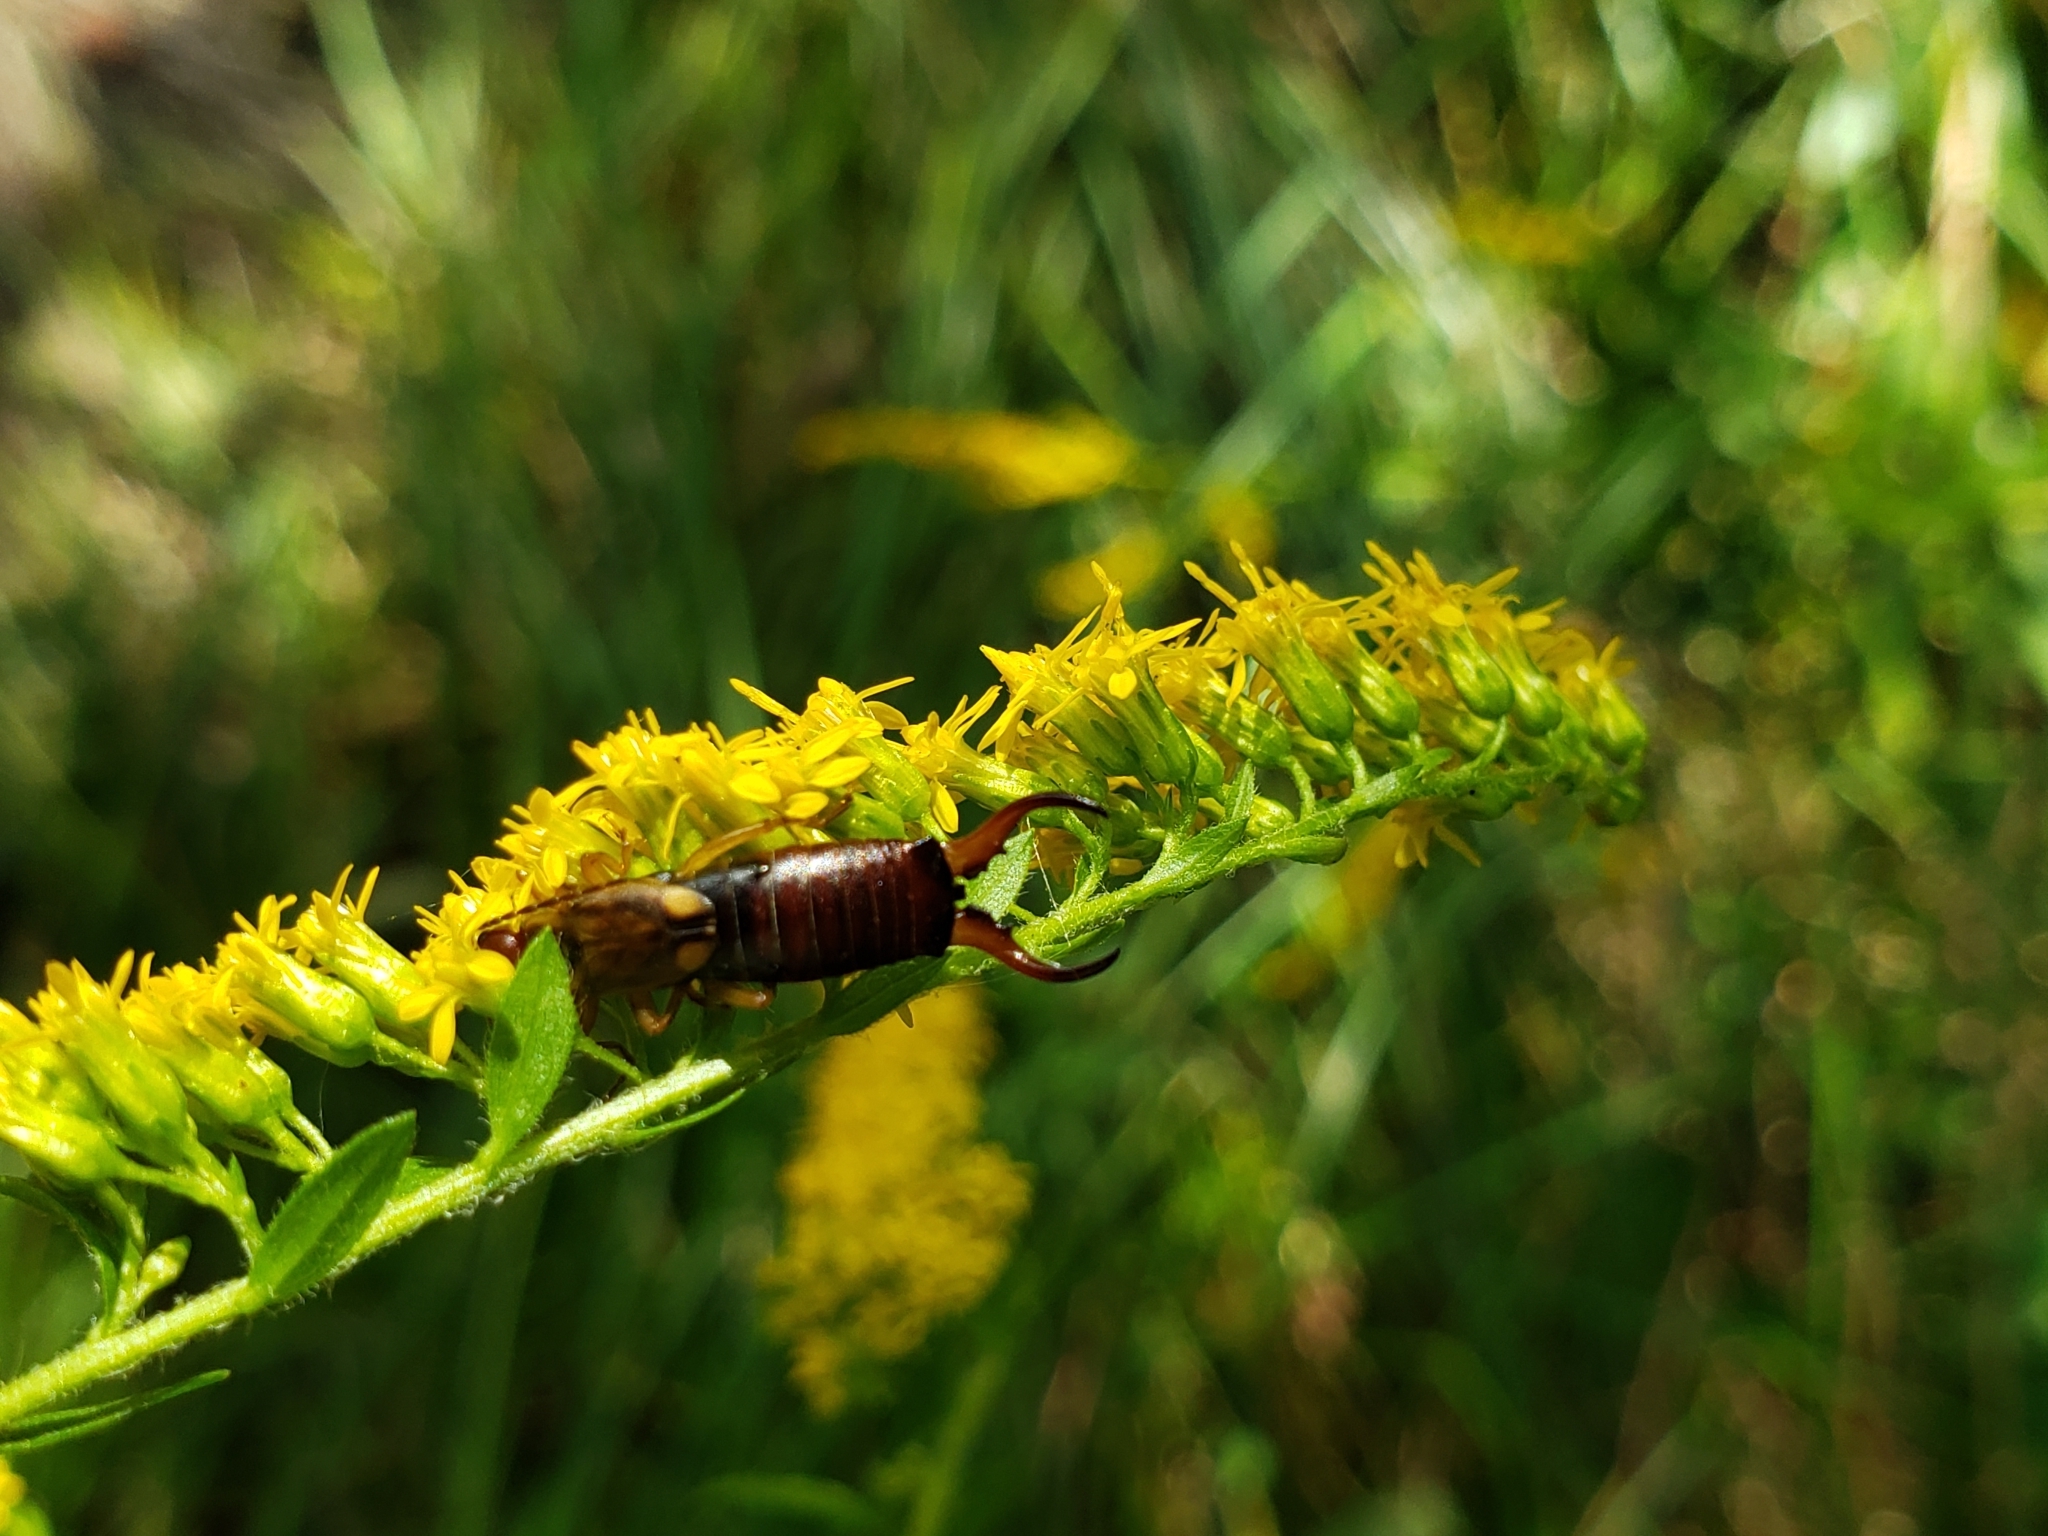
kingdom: Animalia
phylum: Arthropoda
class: Insecta
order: Dermaptera
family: Forficulidae
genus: Forficula
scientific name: Forficula
